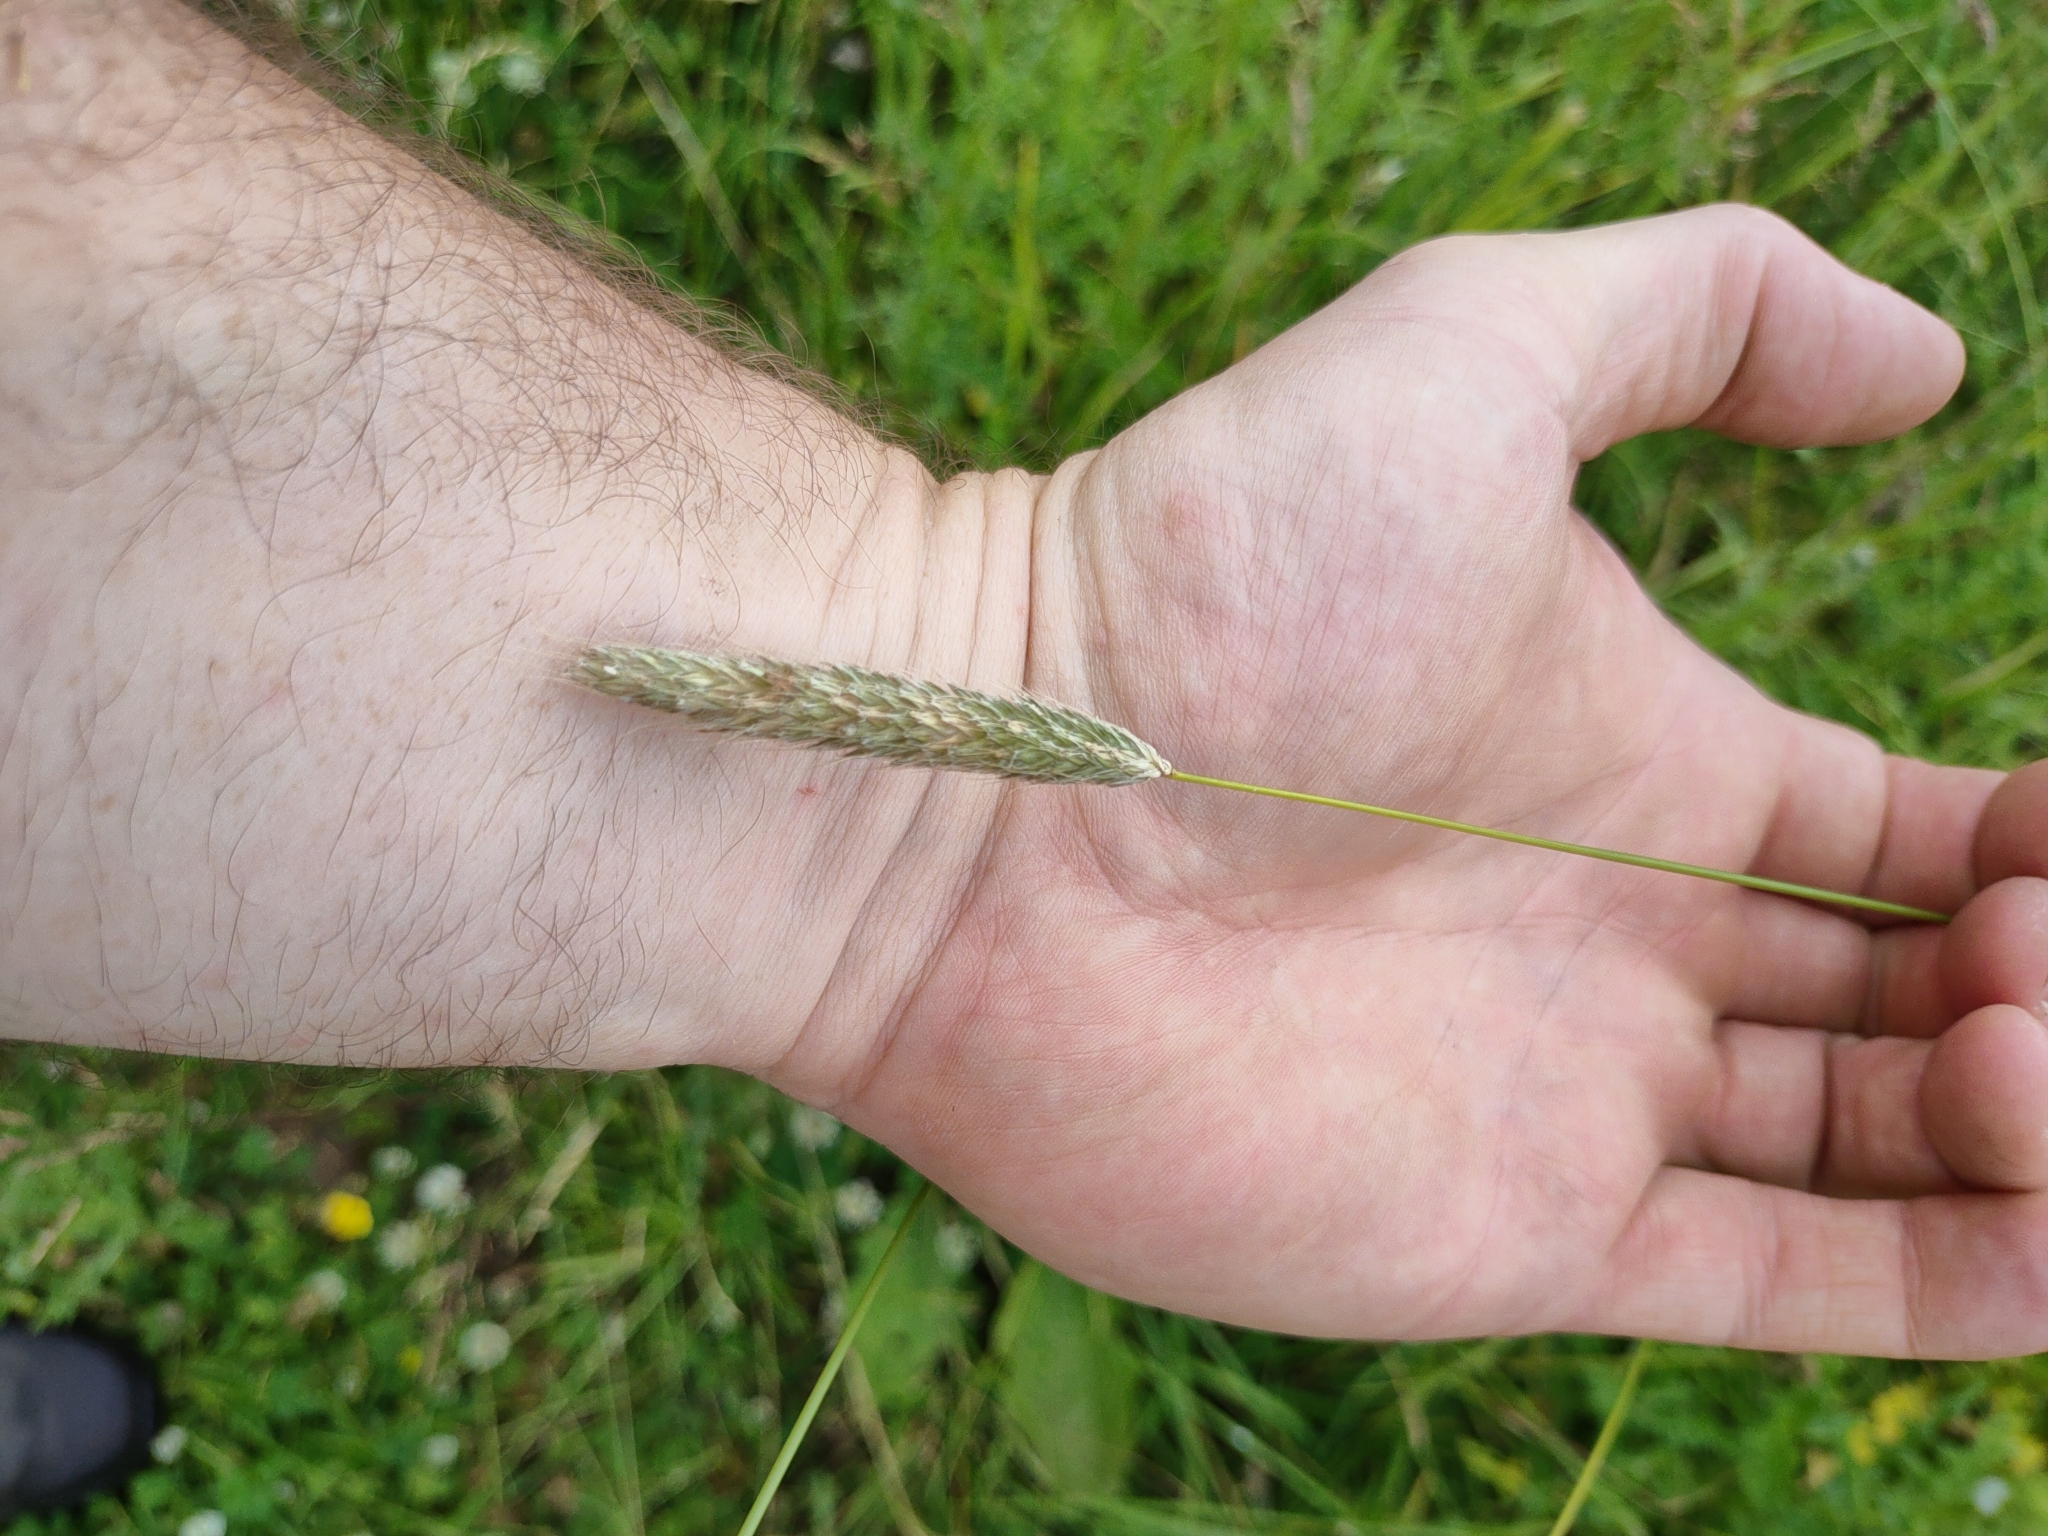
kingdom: Plantae
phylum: Tracheophyta
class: Liliopsida
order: Poales
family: Poaceae
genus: Alopecurus
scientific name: Alopecurus pratensis
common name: Meadow foxtail
